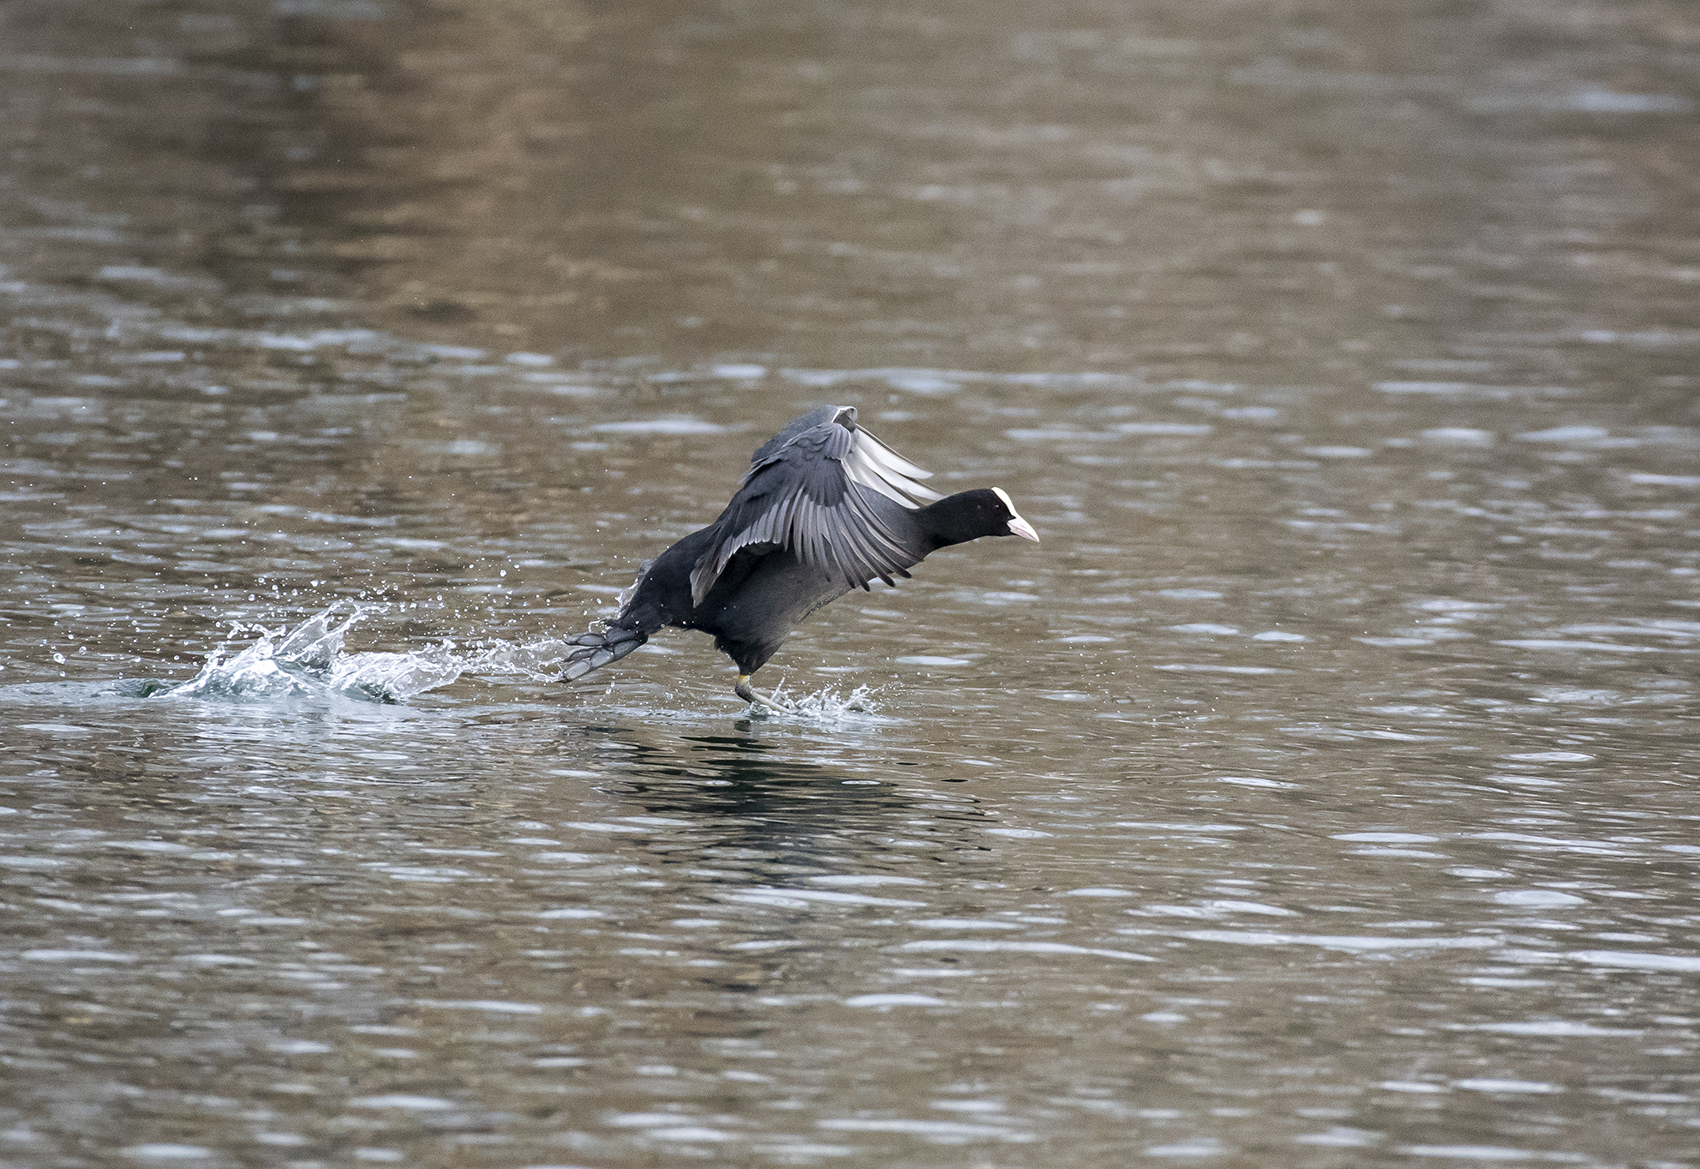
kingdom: Animalia
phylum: Chordata
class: Aves
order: Gruiformes
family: Rallidae
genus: Fulica
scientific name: Fulica atra
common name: Eurasian coot
